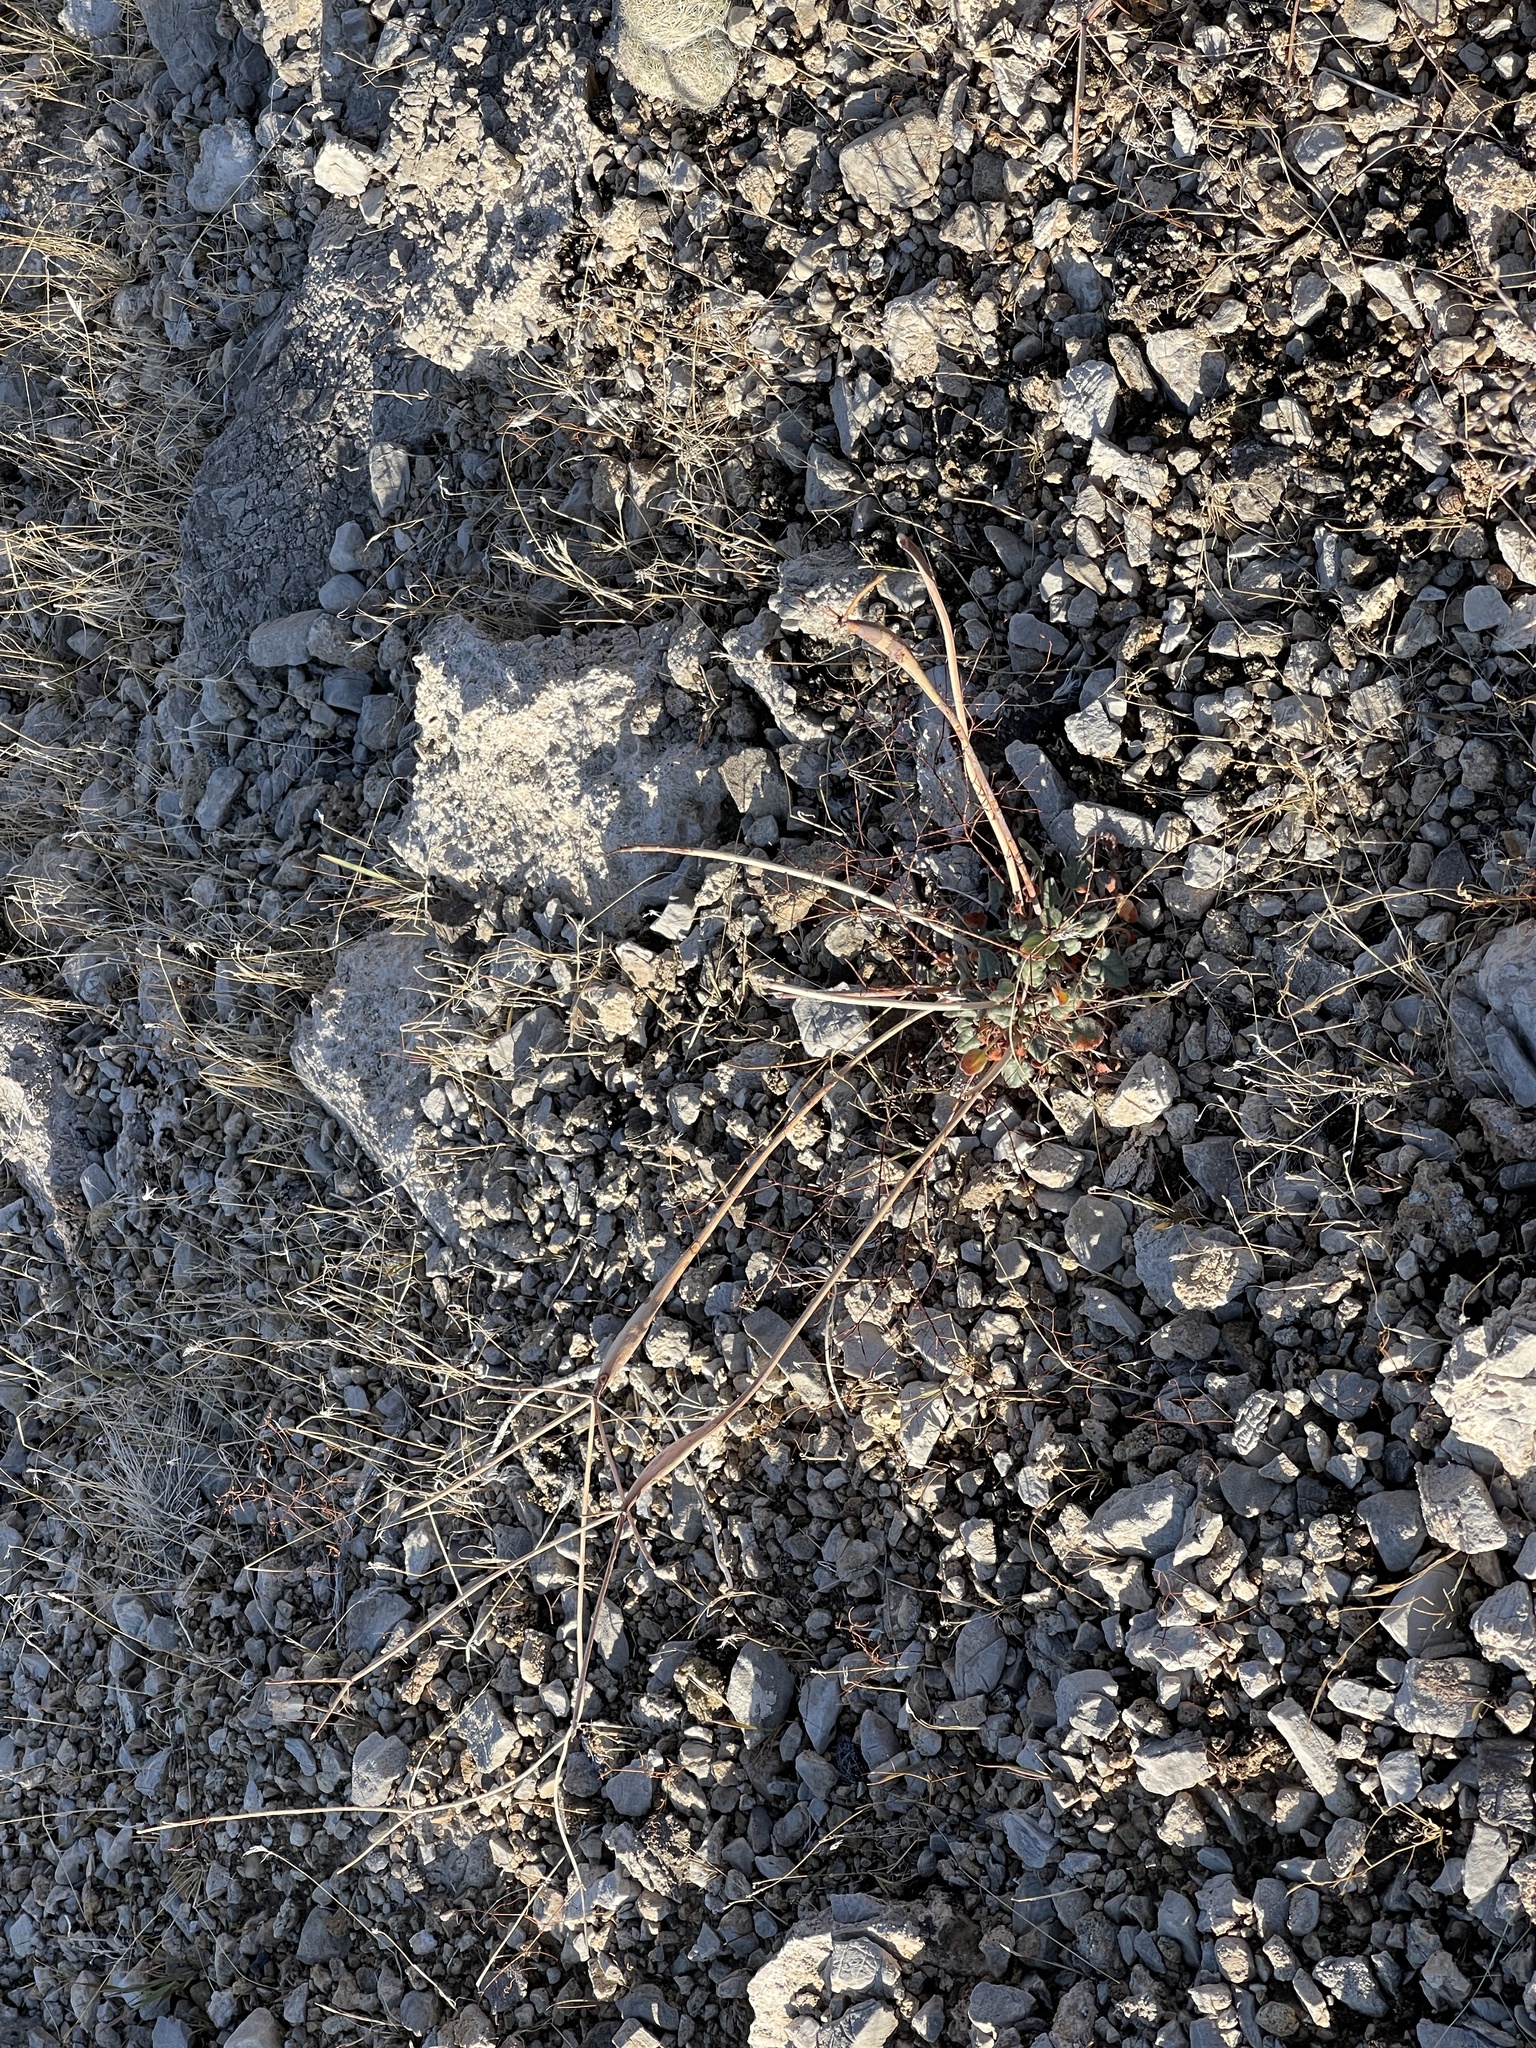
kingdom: Plantae
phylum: Tracheophyta
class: Magnoliopsida
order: Caryophyllales
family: Polygonaceae
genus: Eriogonum
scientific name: Eriogonum inflatum
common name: Desert trumpet
